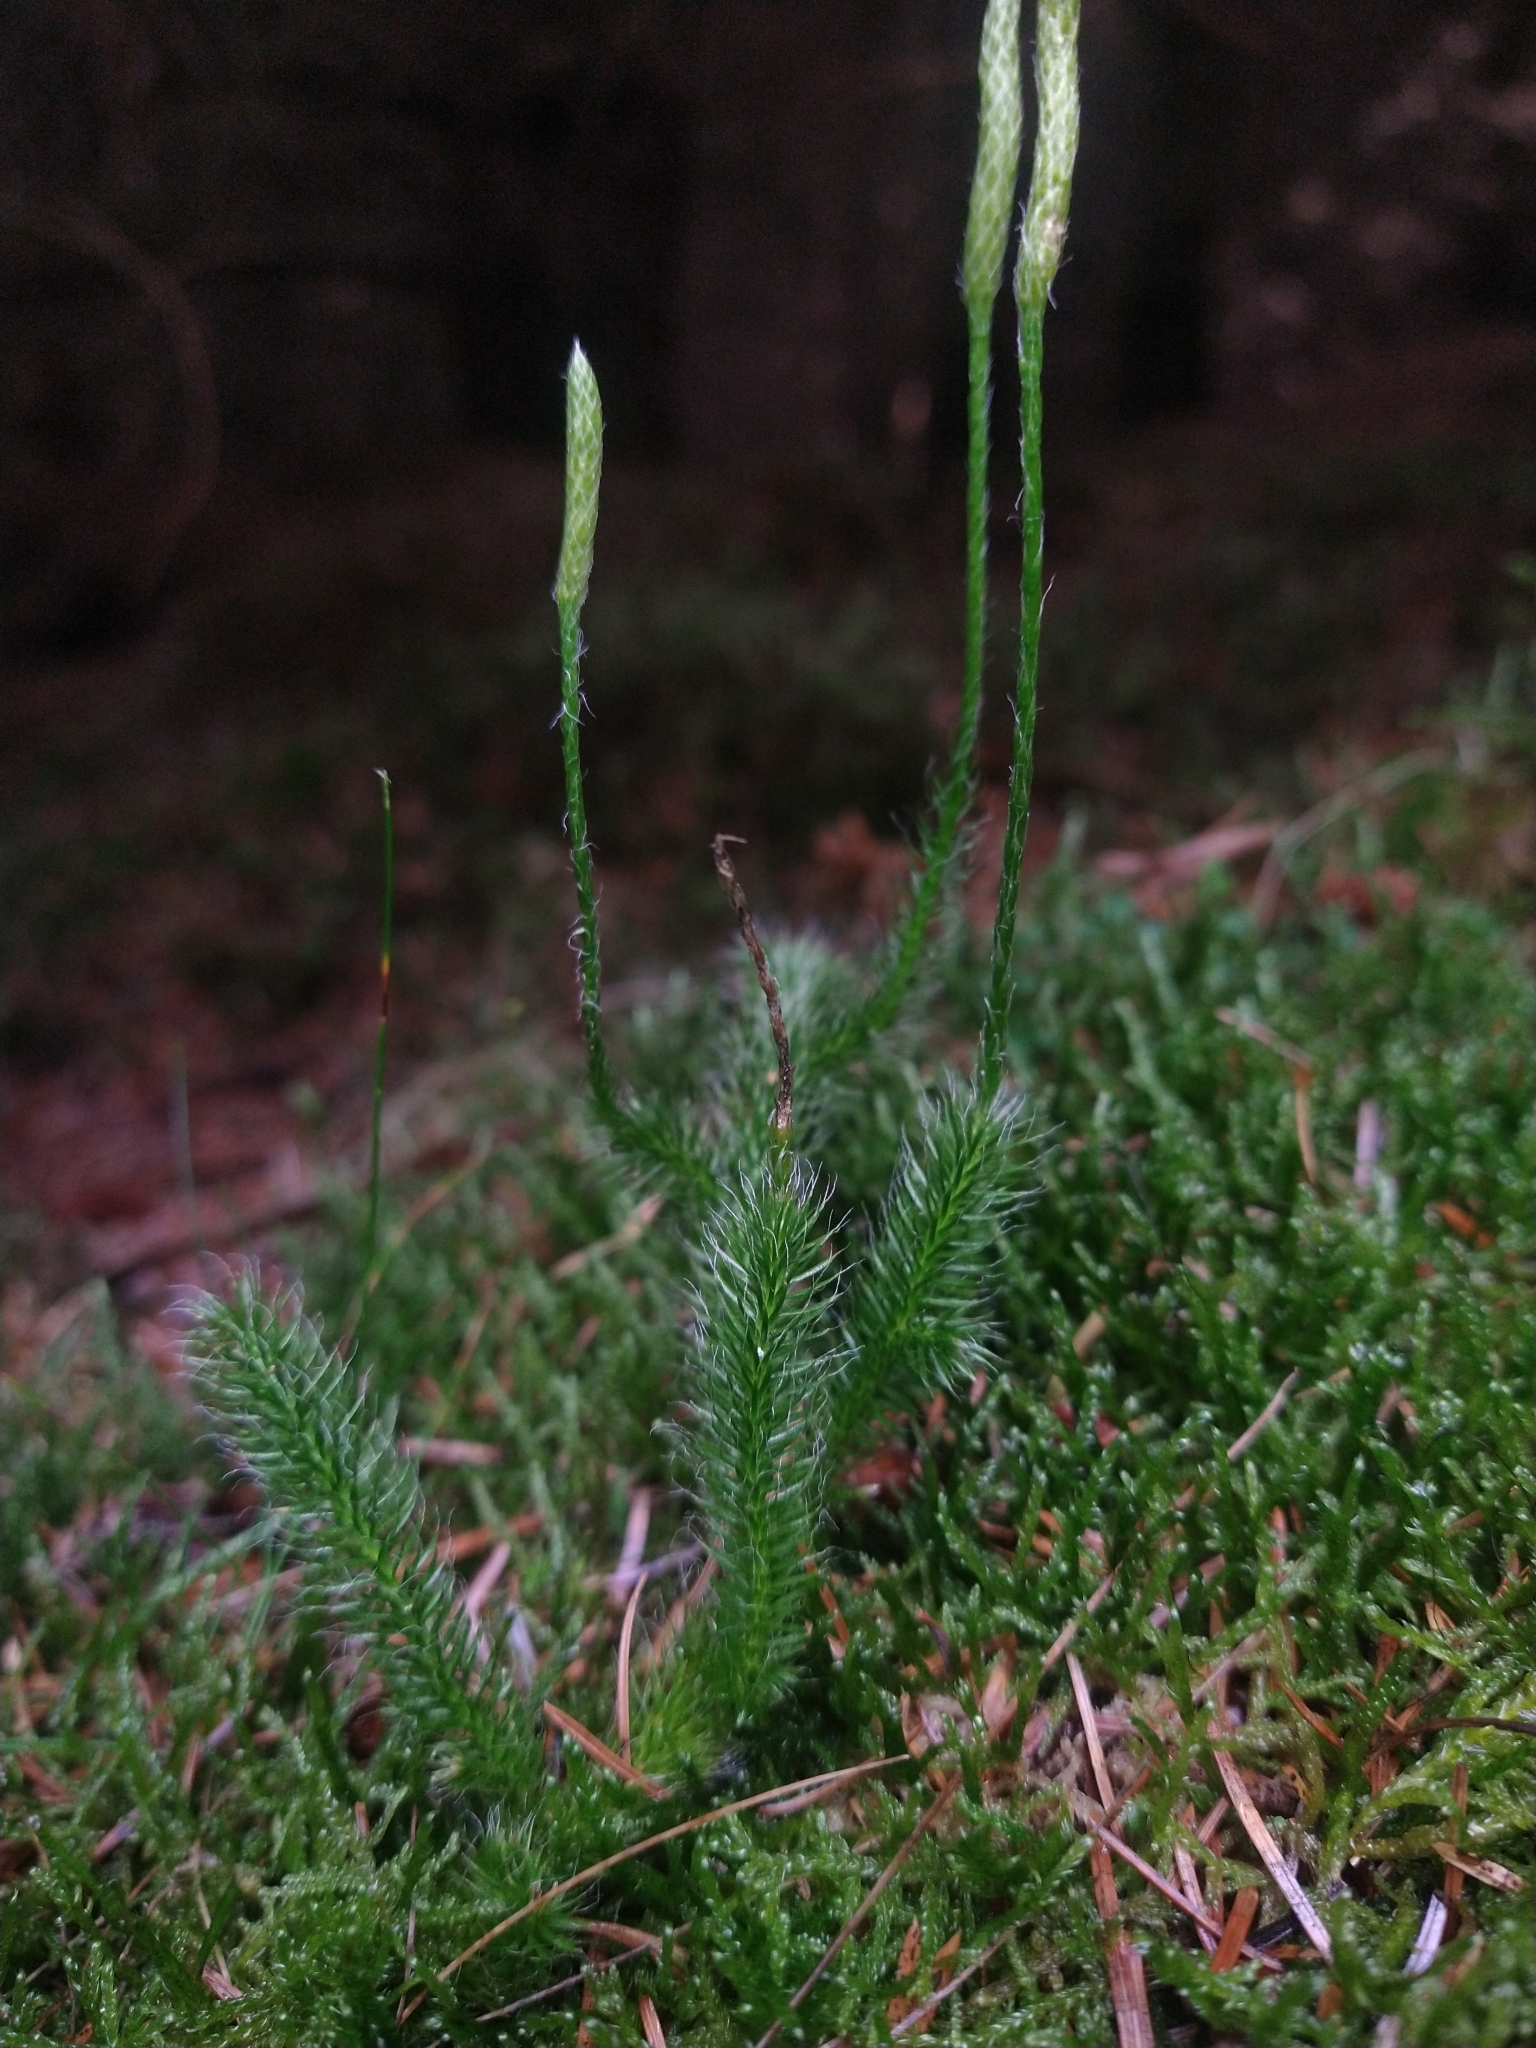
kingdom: Plantae
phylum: Tracheophyta
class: Lycopodiopsida
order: Lycopodiales
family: Lycopodiaceae
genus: Lycopodium
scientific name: Lycopodium clavatum
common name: Stag's-horn clubmoss
